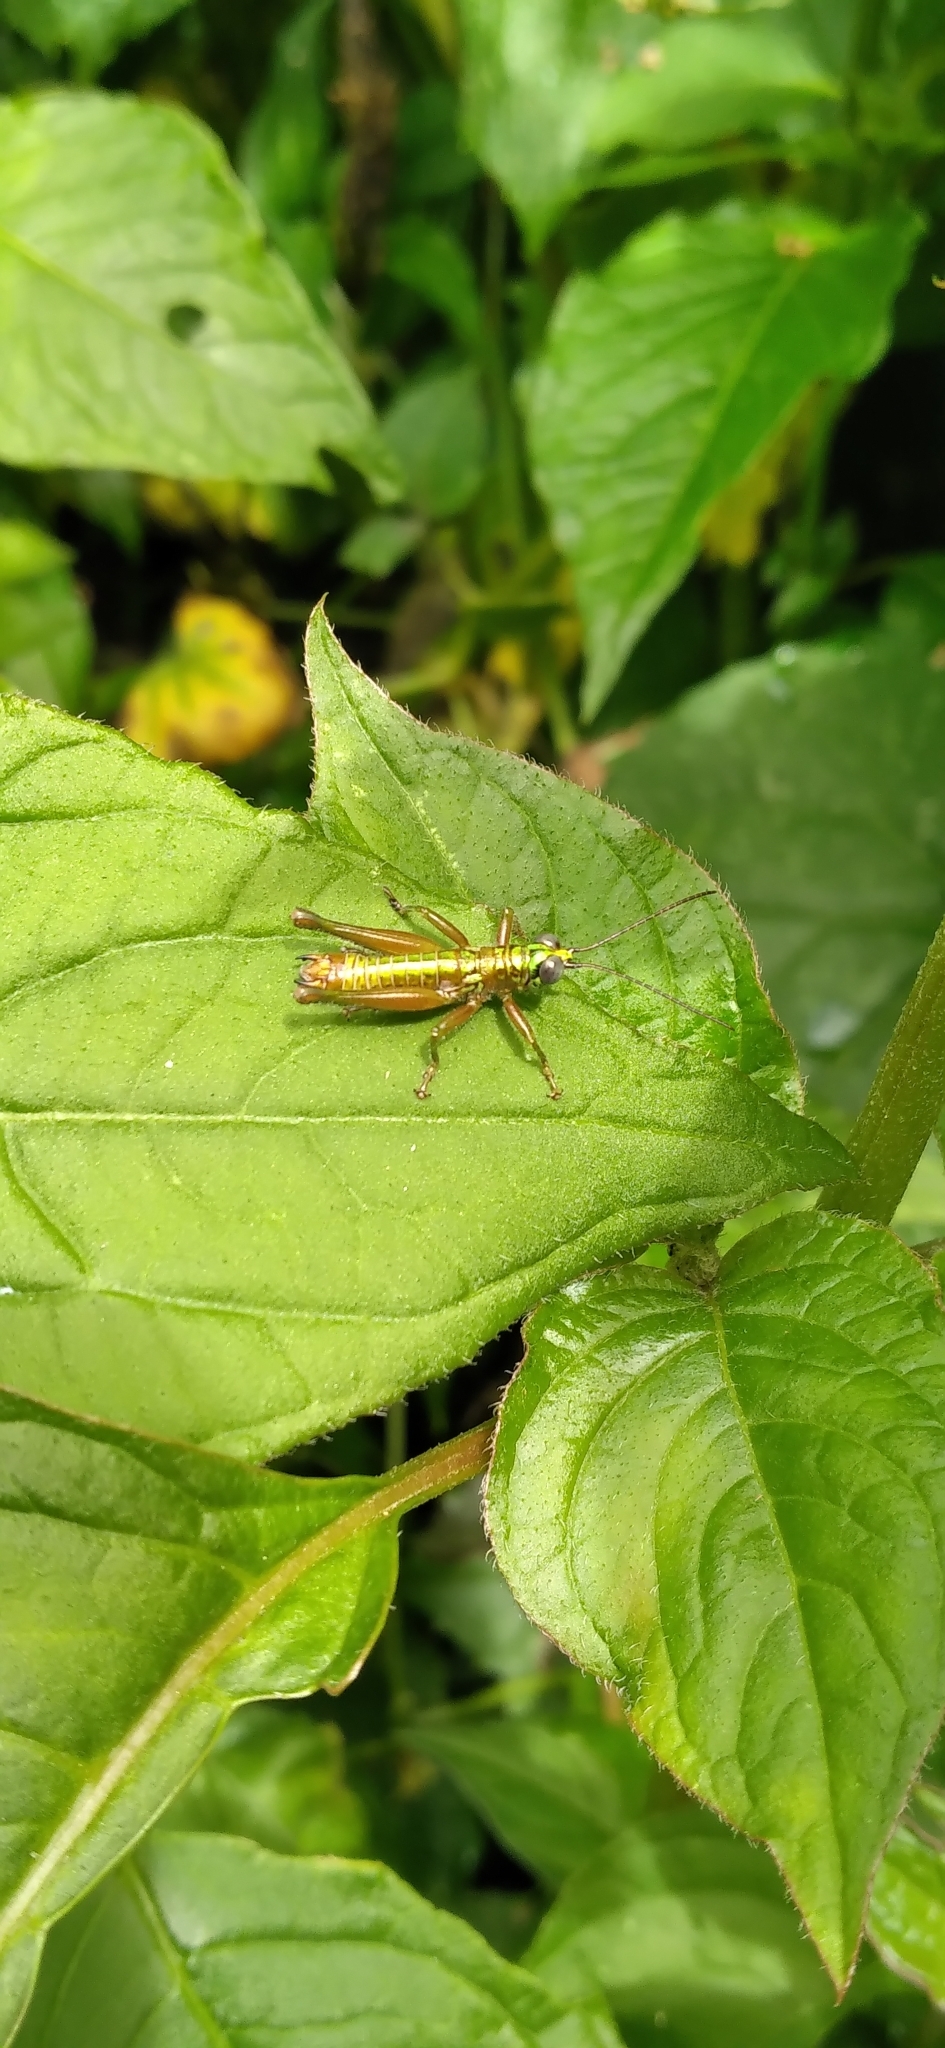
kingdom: Animalia
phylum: Arthropoda
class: Insecta
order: Orthoptera
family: Acrididae
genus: Drymophilacris
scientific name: Drymophilacris panamae
